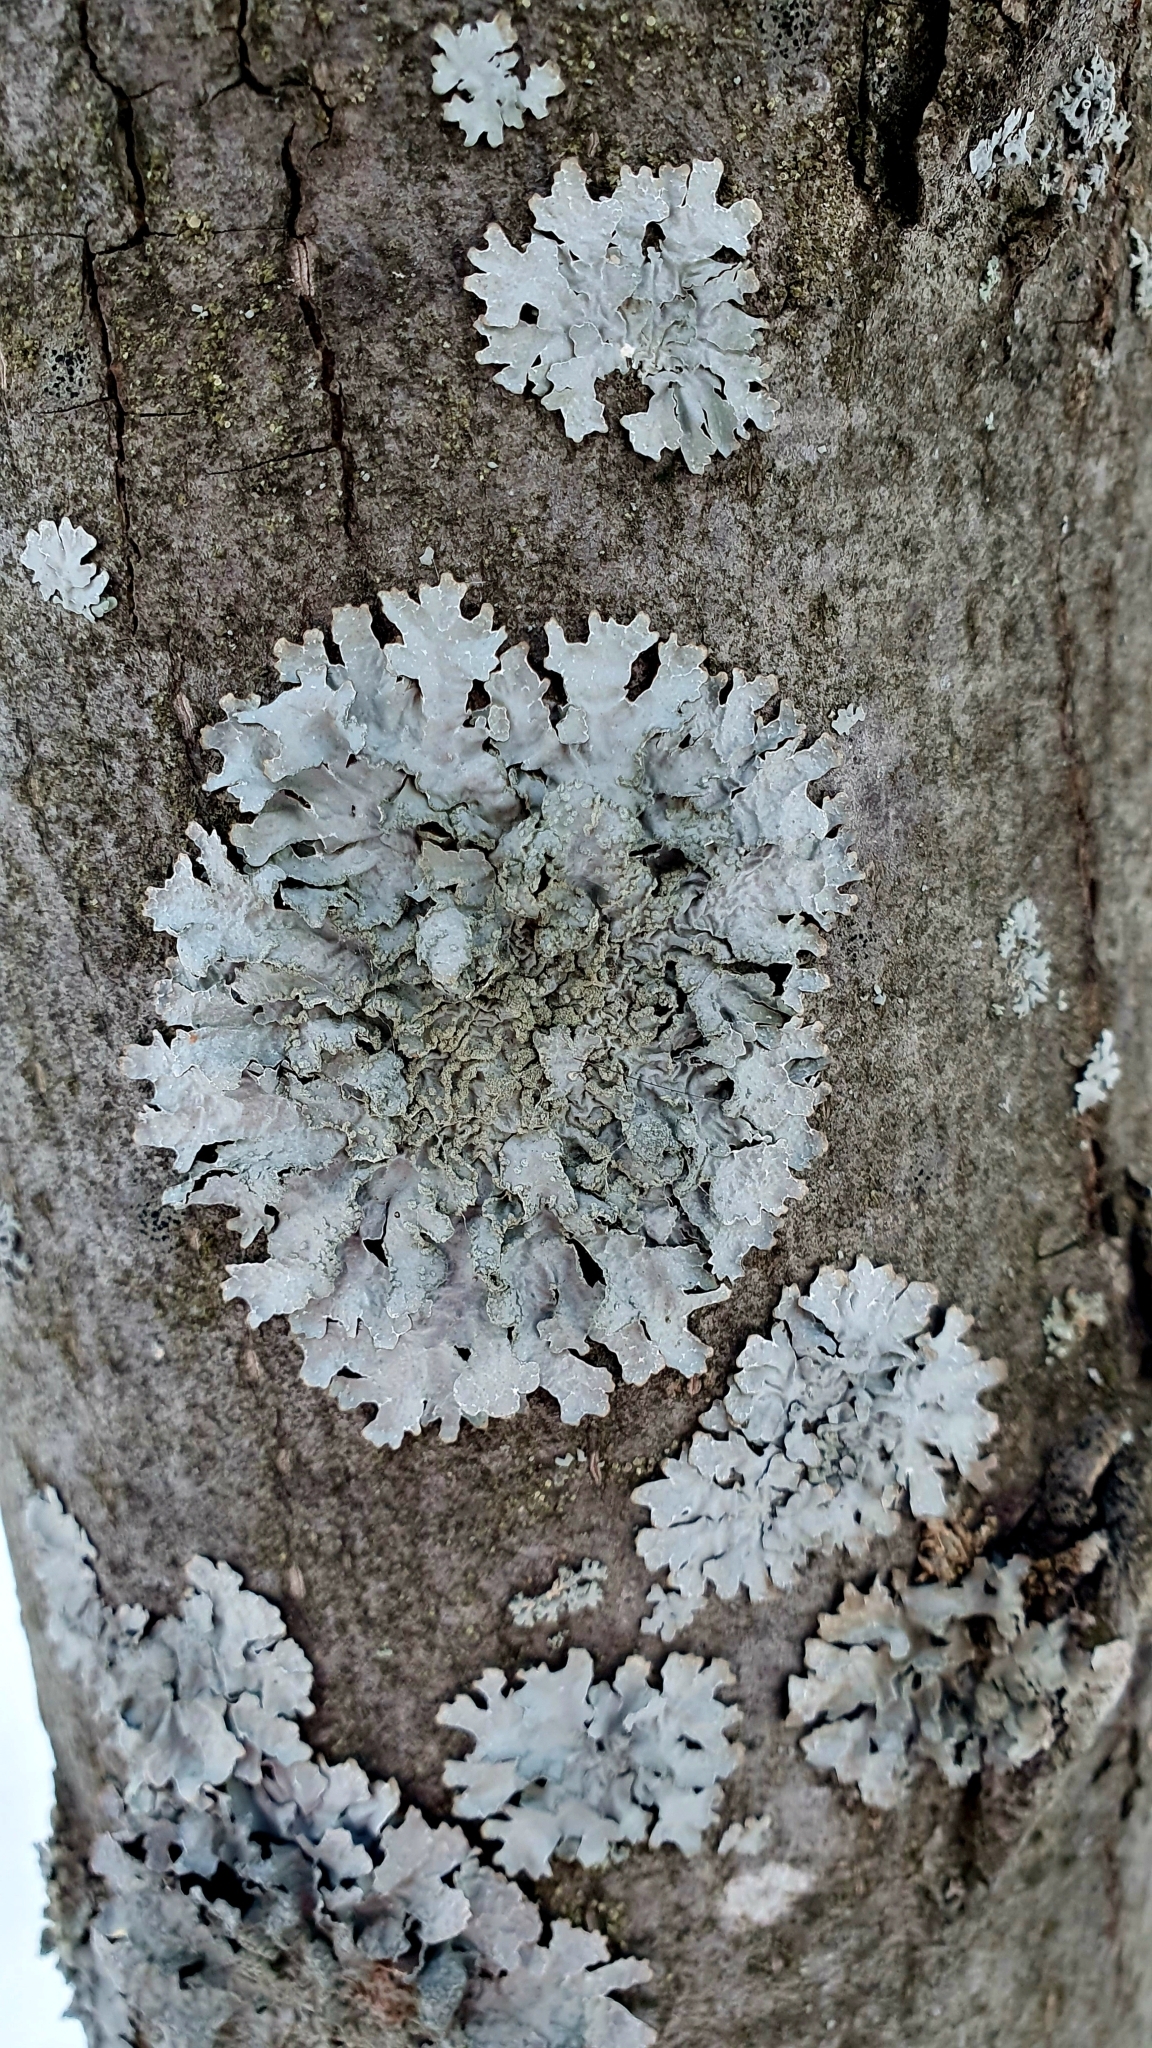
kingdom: Fungi
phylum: Ascomycota
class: Lecanoromycetes
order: Lecanorales
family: Parmeliaceae
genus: Parmelia
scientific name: Parmelia sulcata
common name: Netted shield lichen
